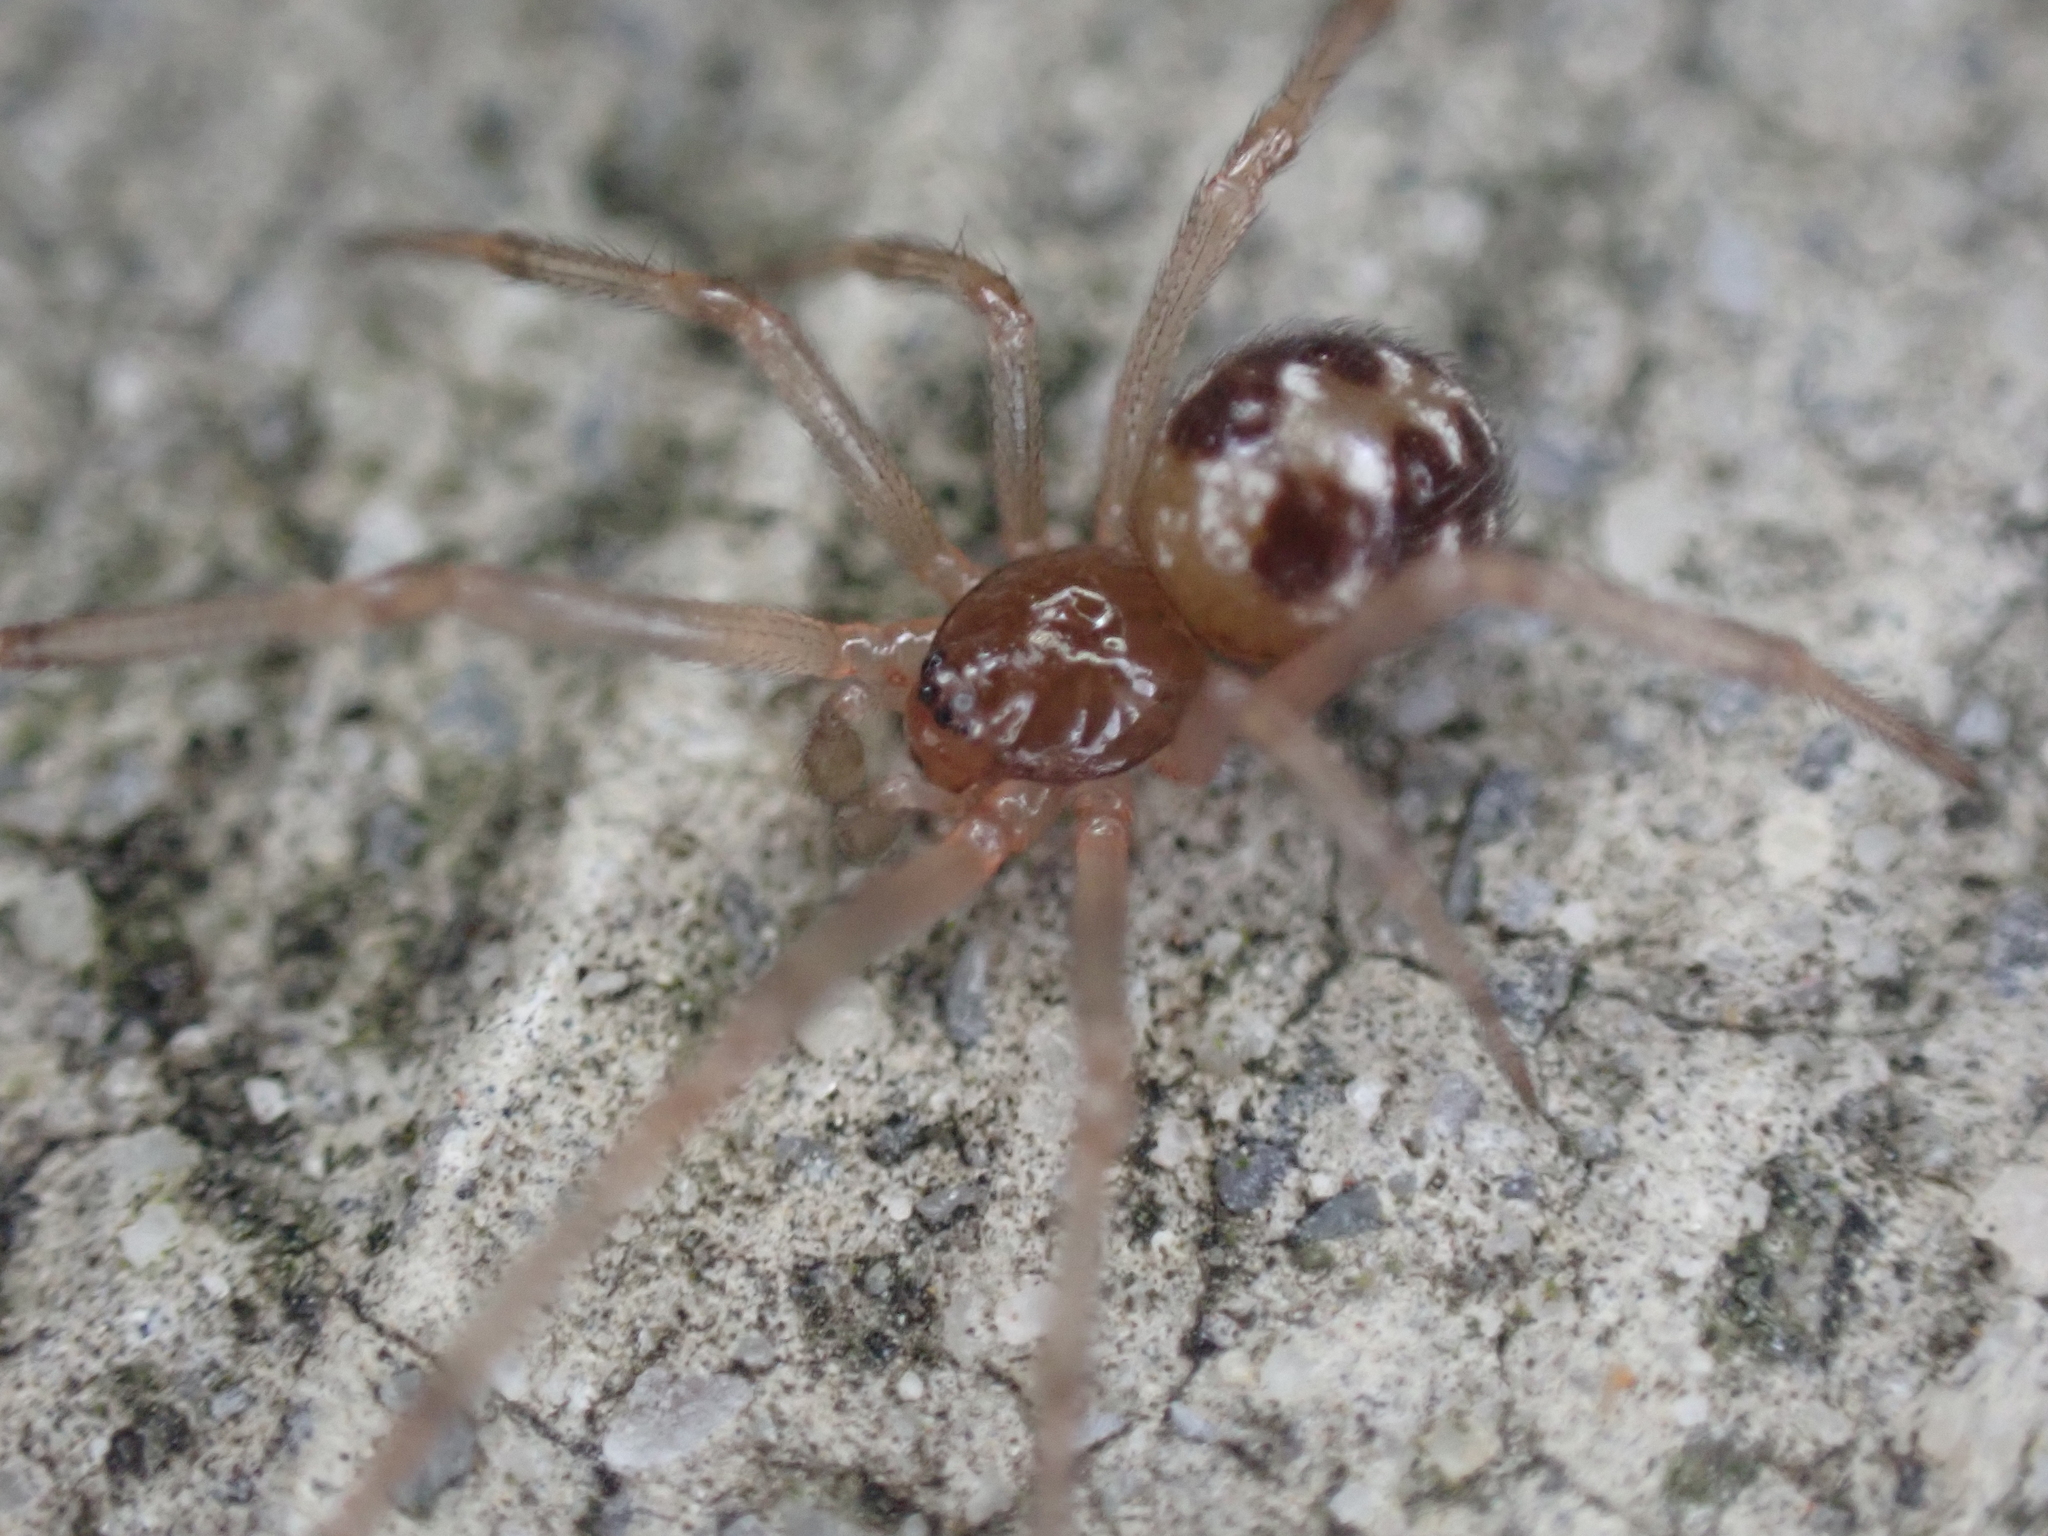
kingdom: Animalia
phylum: Arthropoda
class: Arachnida
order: Araneae
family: Theridiidae
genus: Steatoda
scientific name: Steatoda triangulosa
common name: Triangulate bud spider
